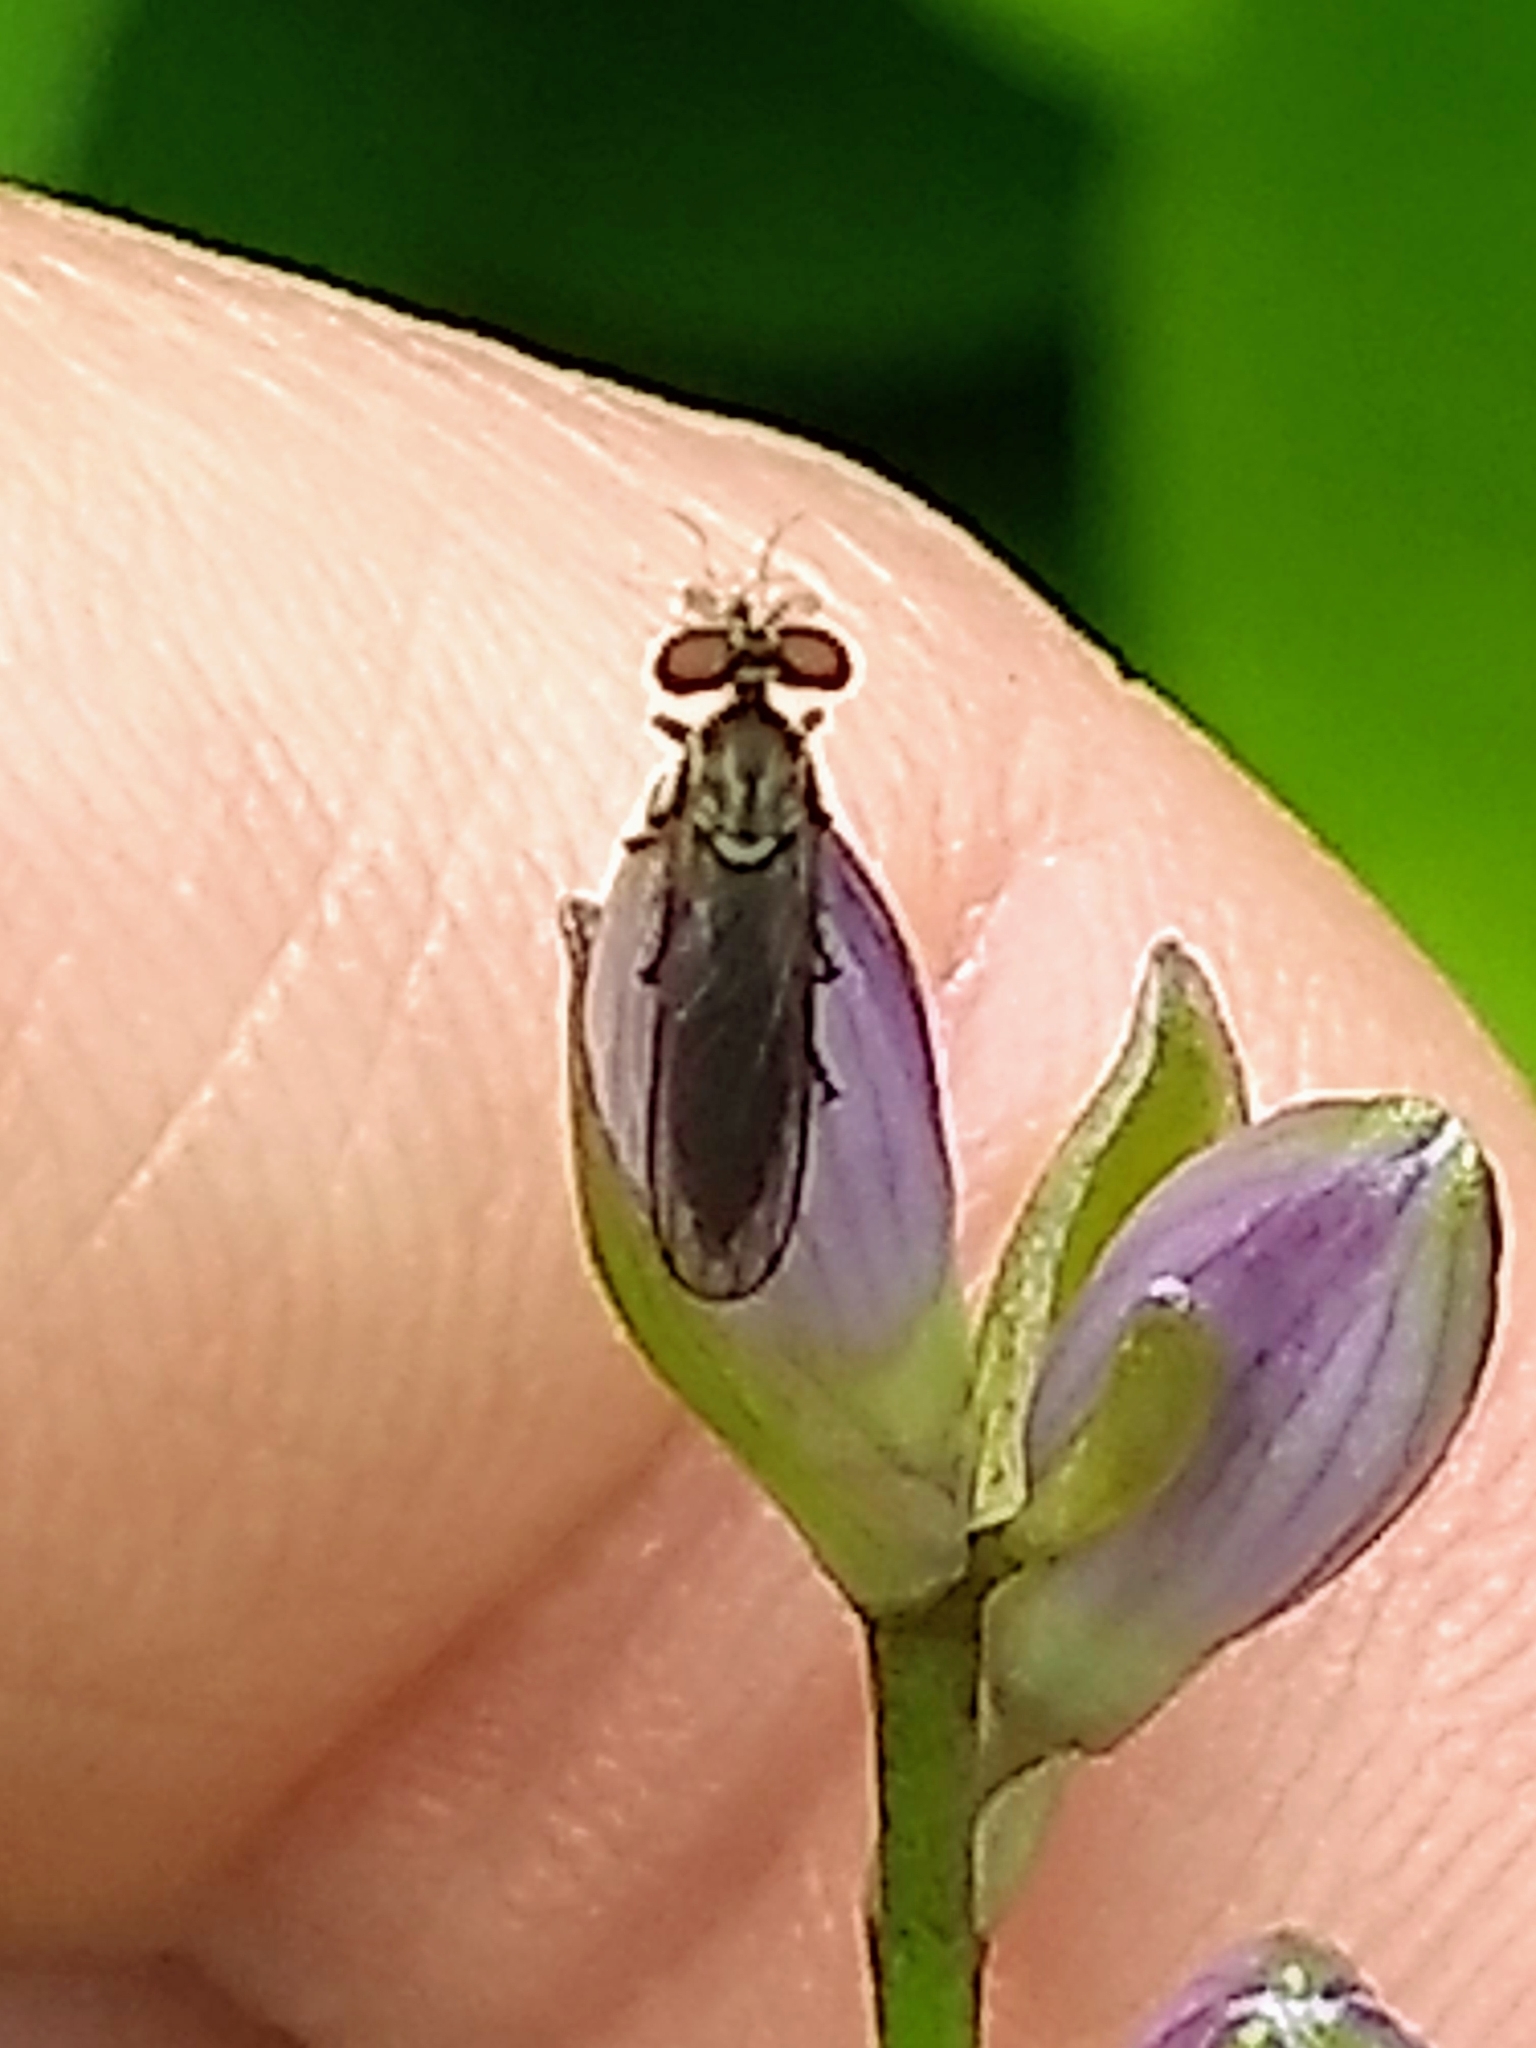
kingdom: Animalia
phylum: Arthropoda
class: Insecta
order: Diptera
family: Asilidae
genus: Holcocephala
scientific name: Holcocephala calva
